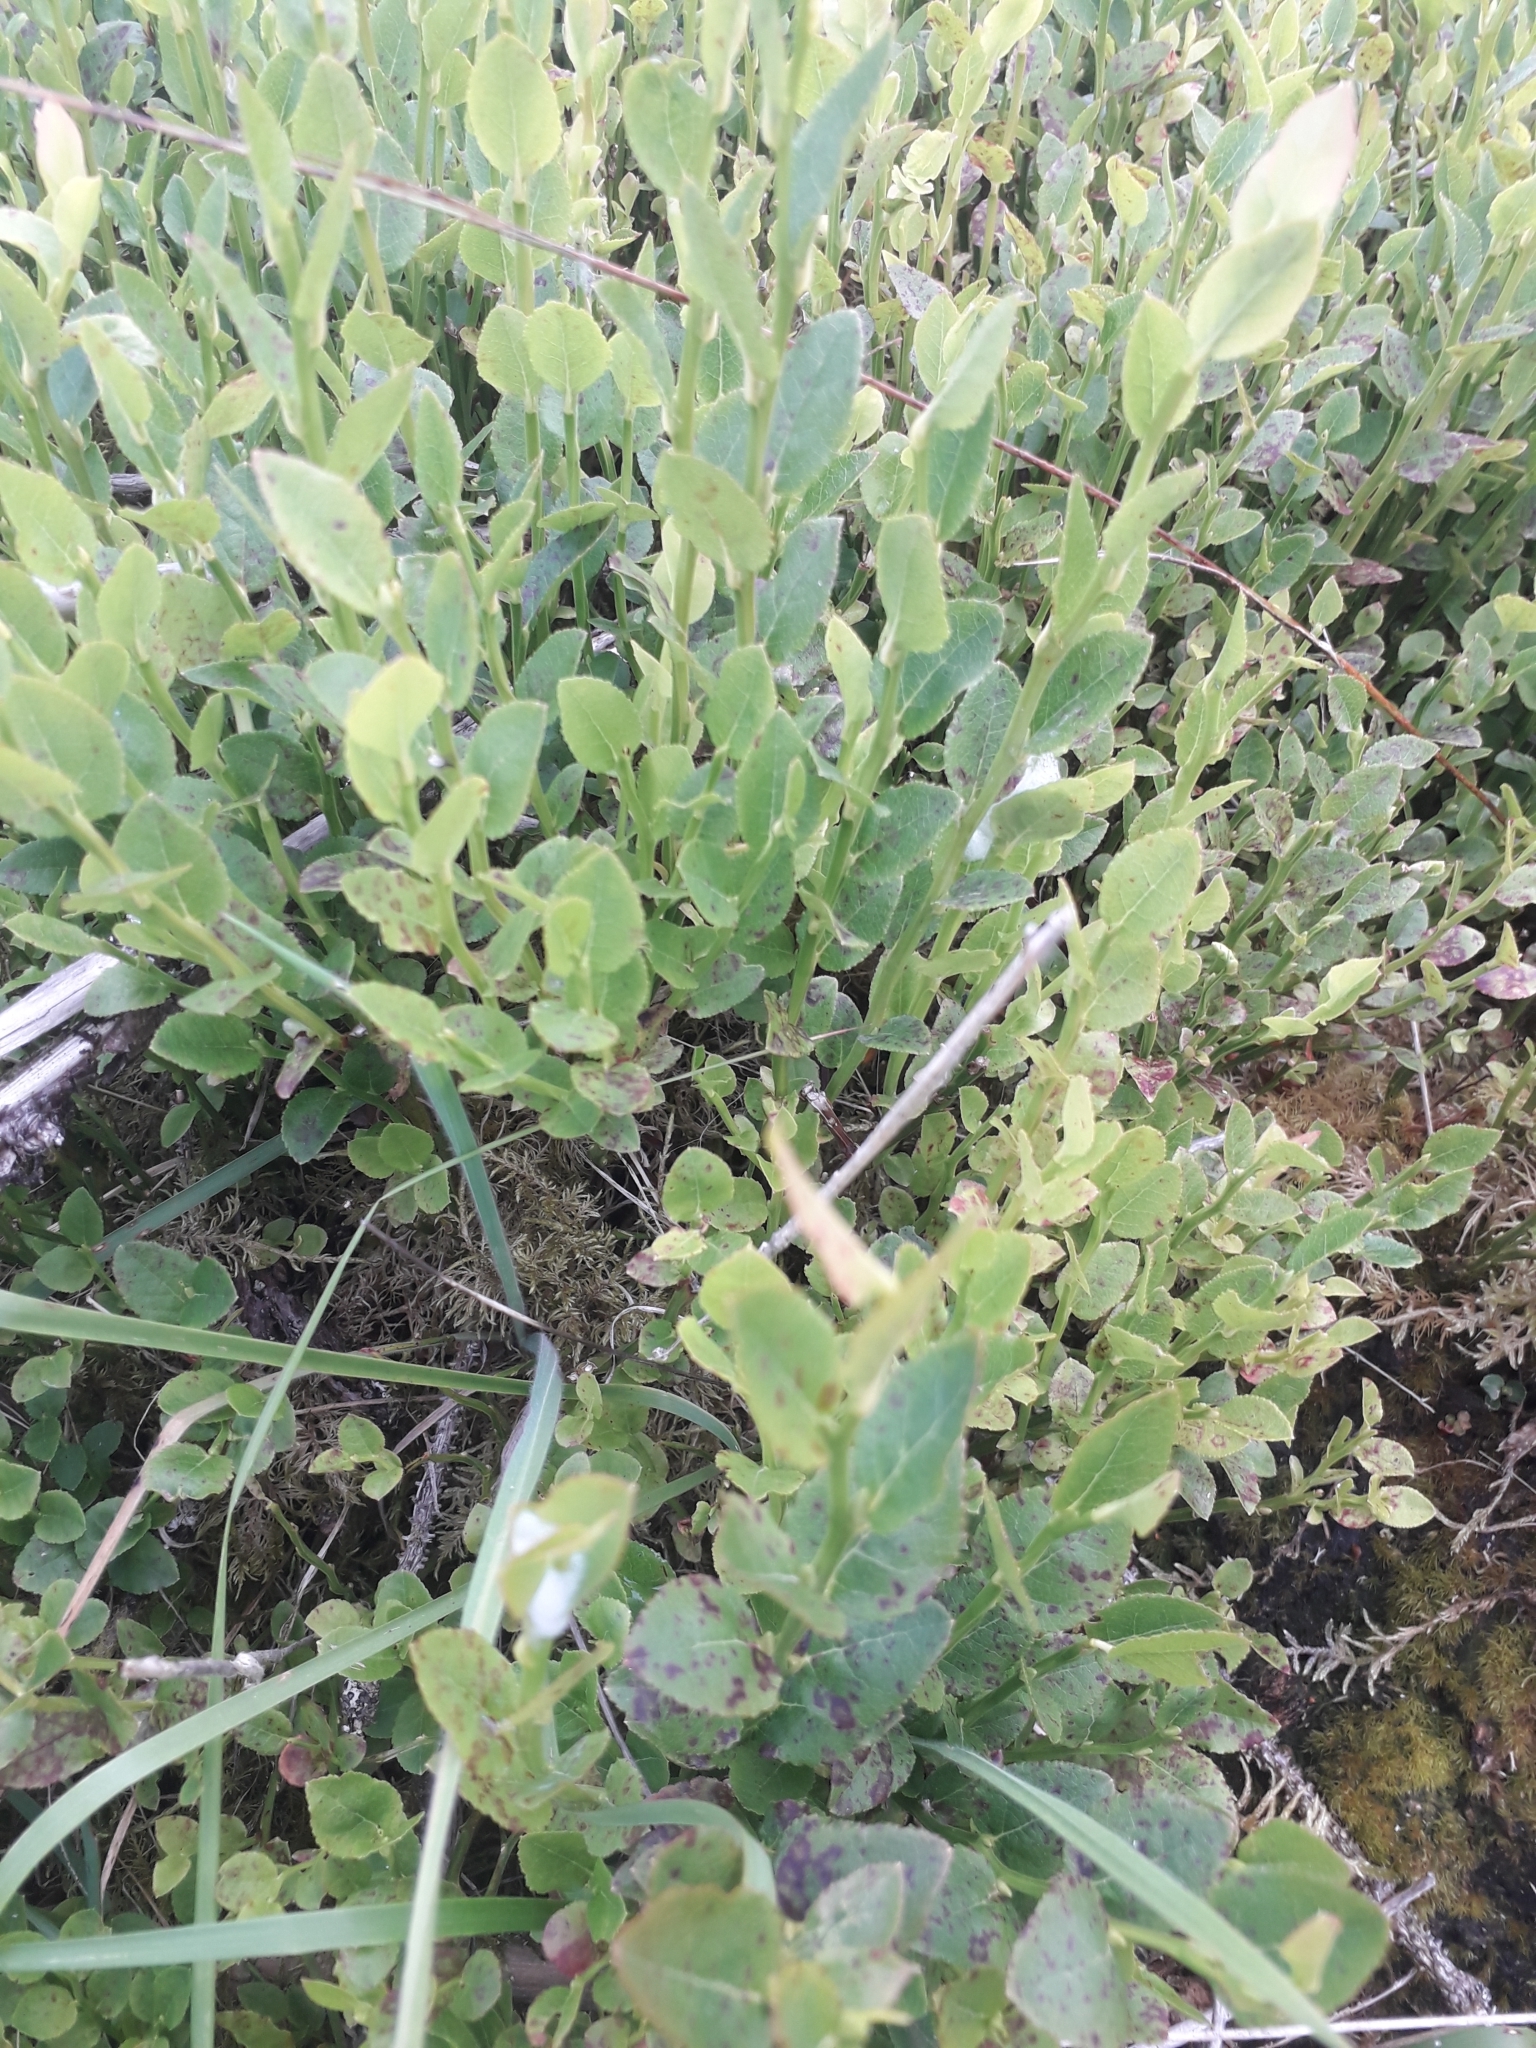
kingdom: Plantae
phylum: Tracheophyta
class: Magnoliopsida
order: Ericales
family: Ericaceae
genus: Vaccinium
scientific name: Vaccinium myrtillus
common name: Bilberry
